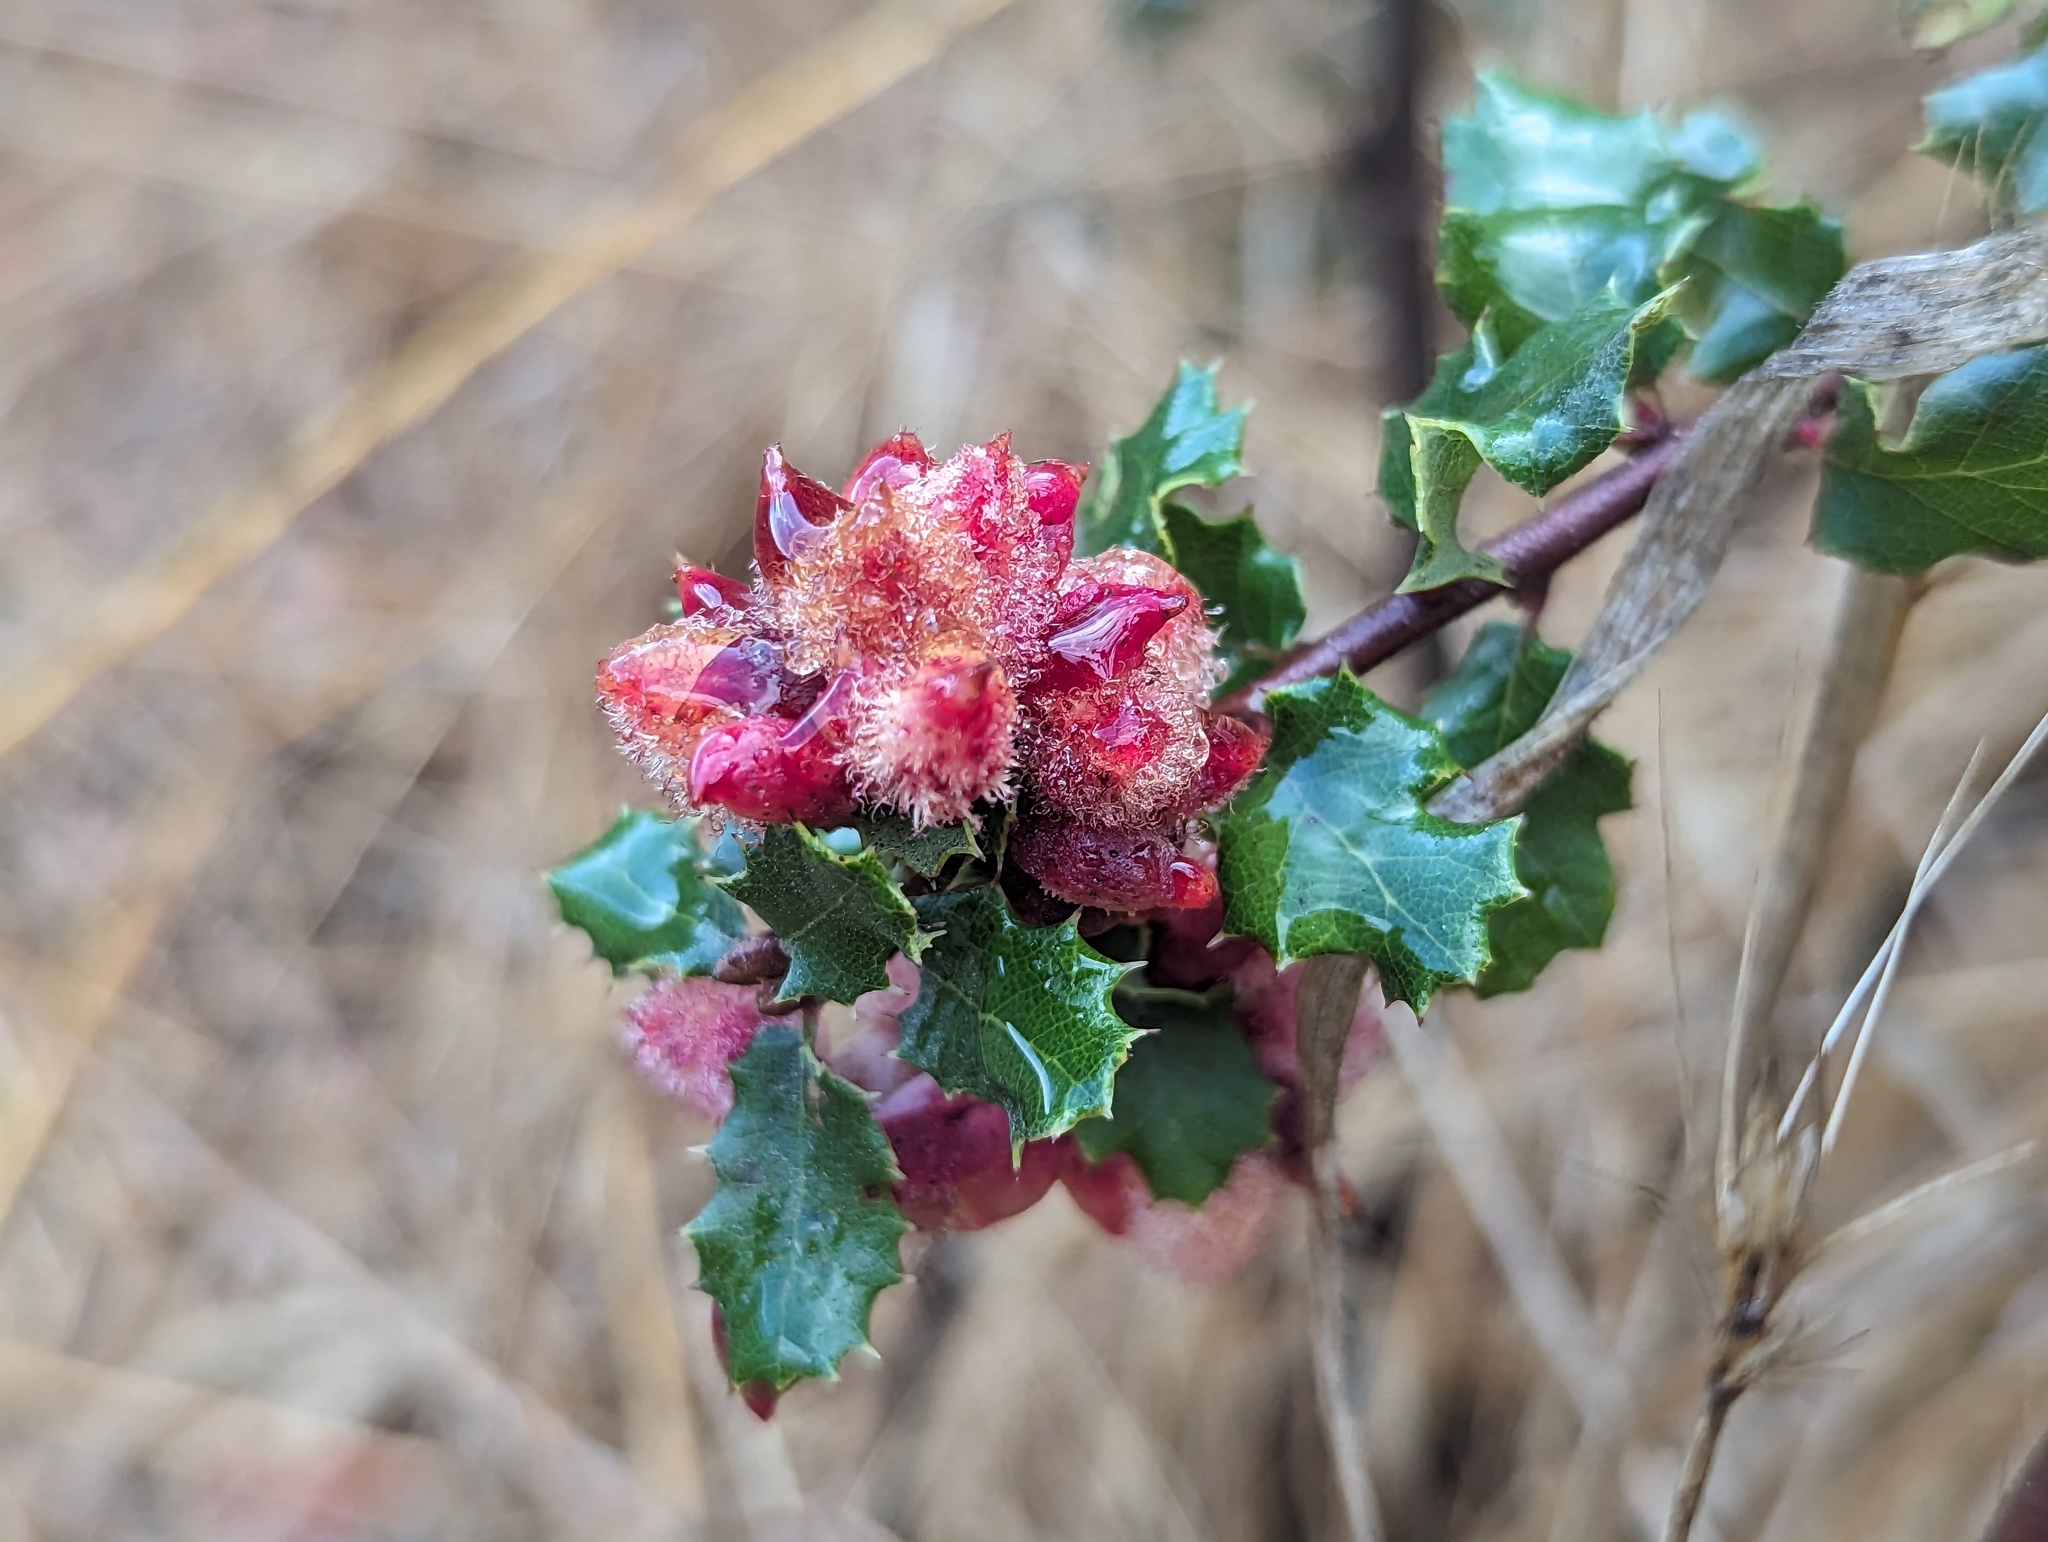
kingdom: Animalia
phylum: Arthropoda
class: Insecta
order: Hymenoptera
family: Cynipidae
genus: Andricus
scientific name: Andricus
